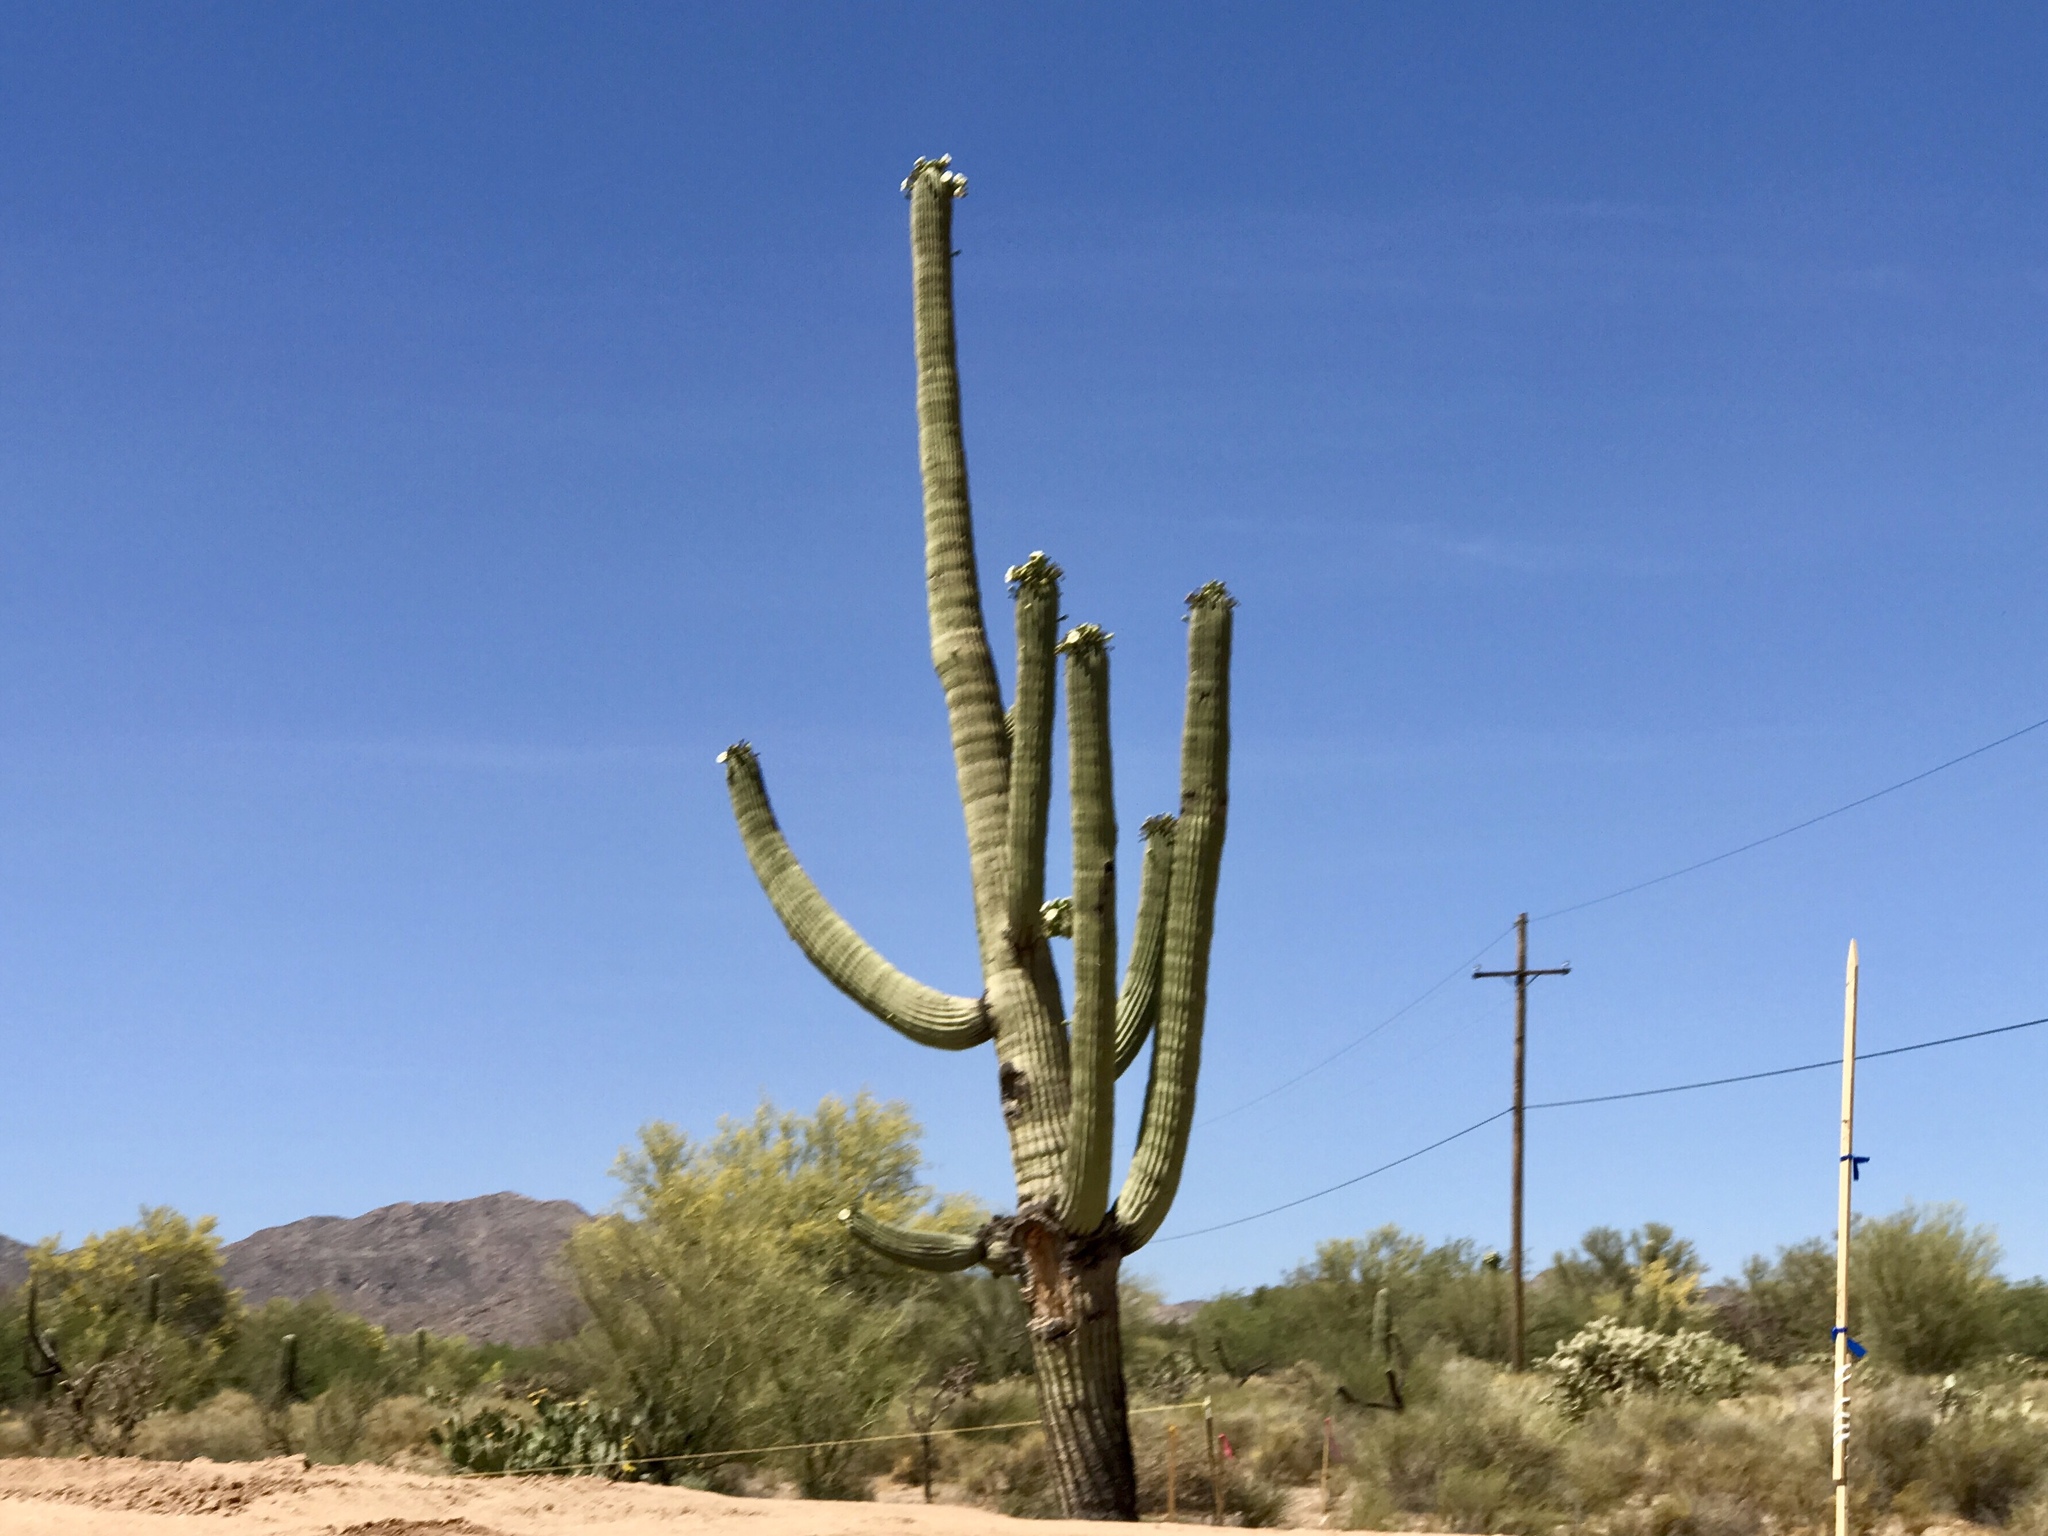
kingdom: Plantae
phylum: Tracheophyta
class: Magnoliopsida
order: Caryophyllales
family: Cactaceae
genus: Carnegiea
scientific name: Carnegiea gigantea
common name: Saguaro
